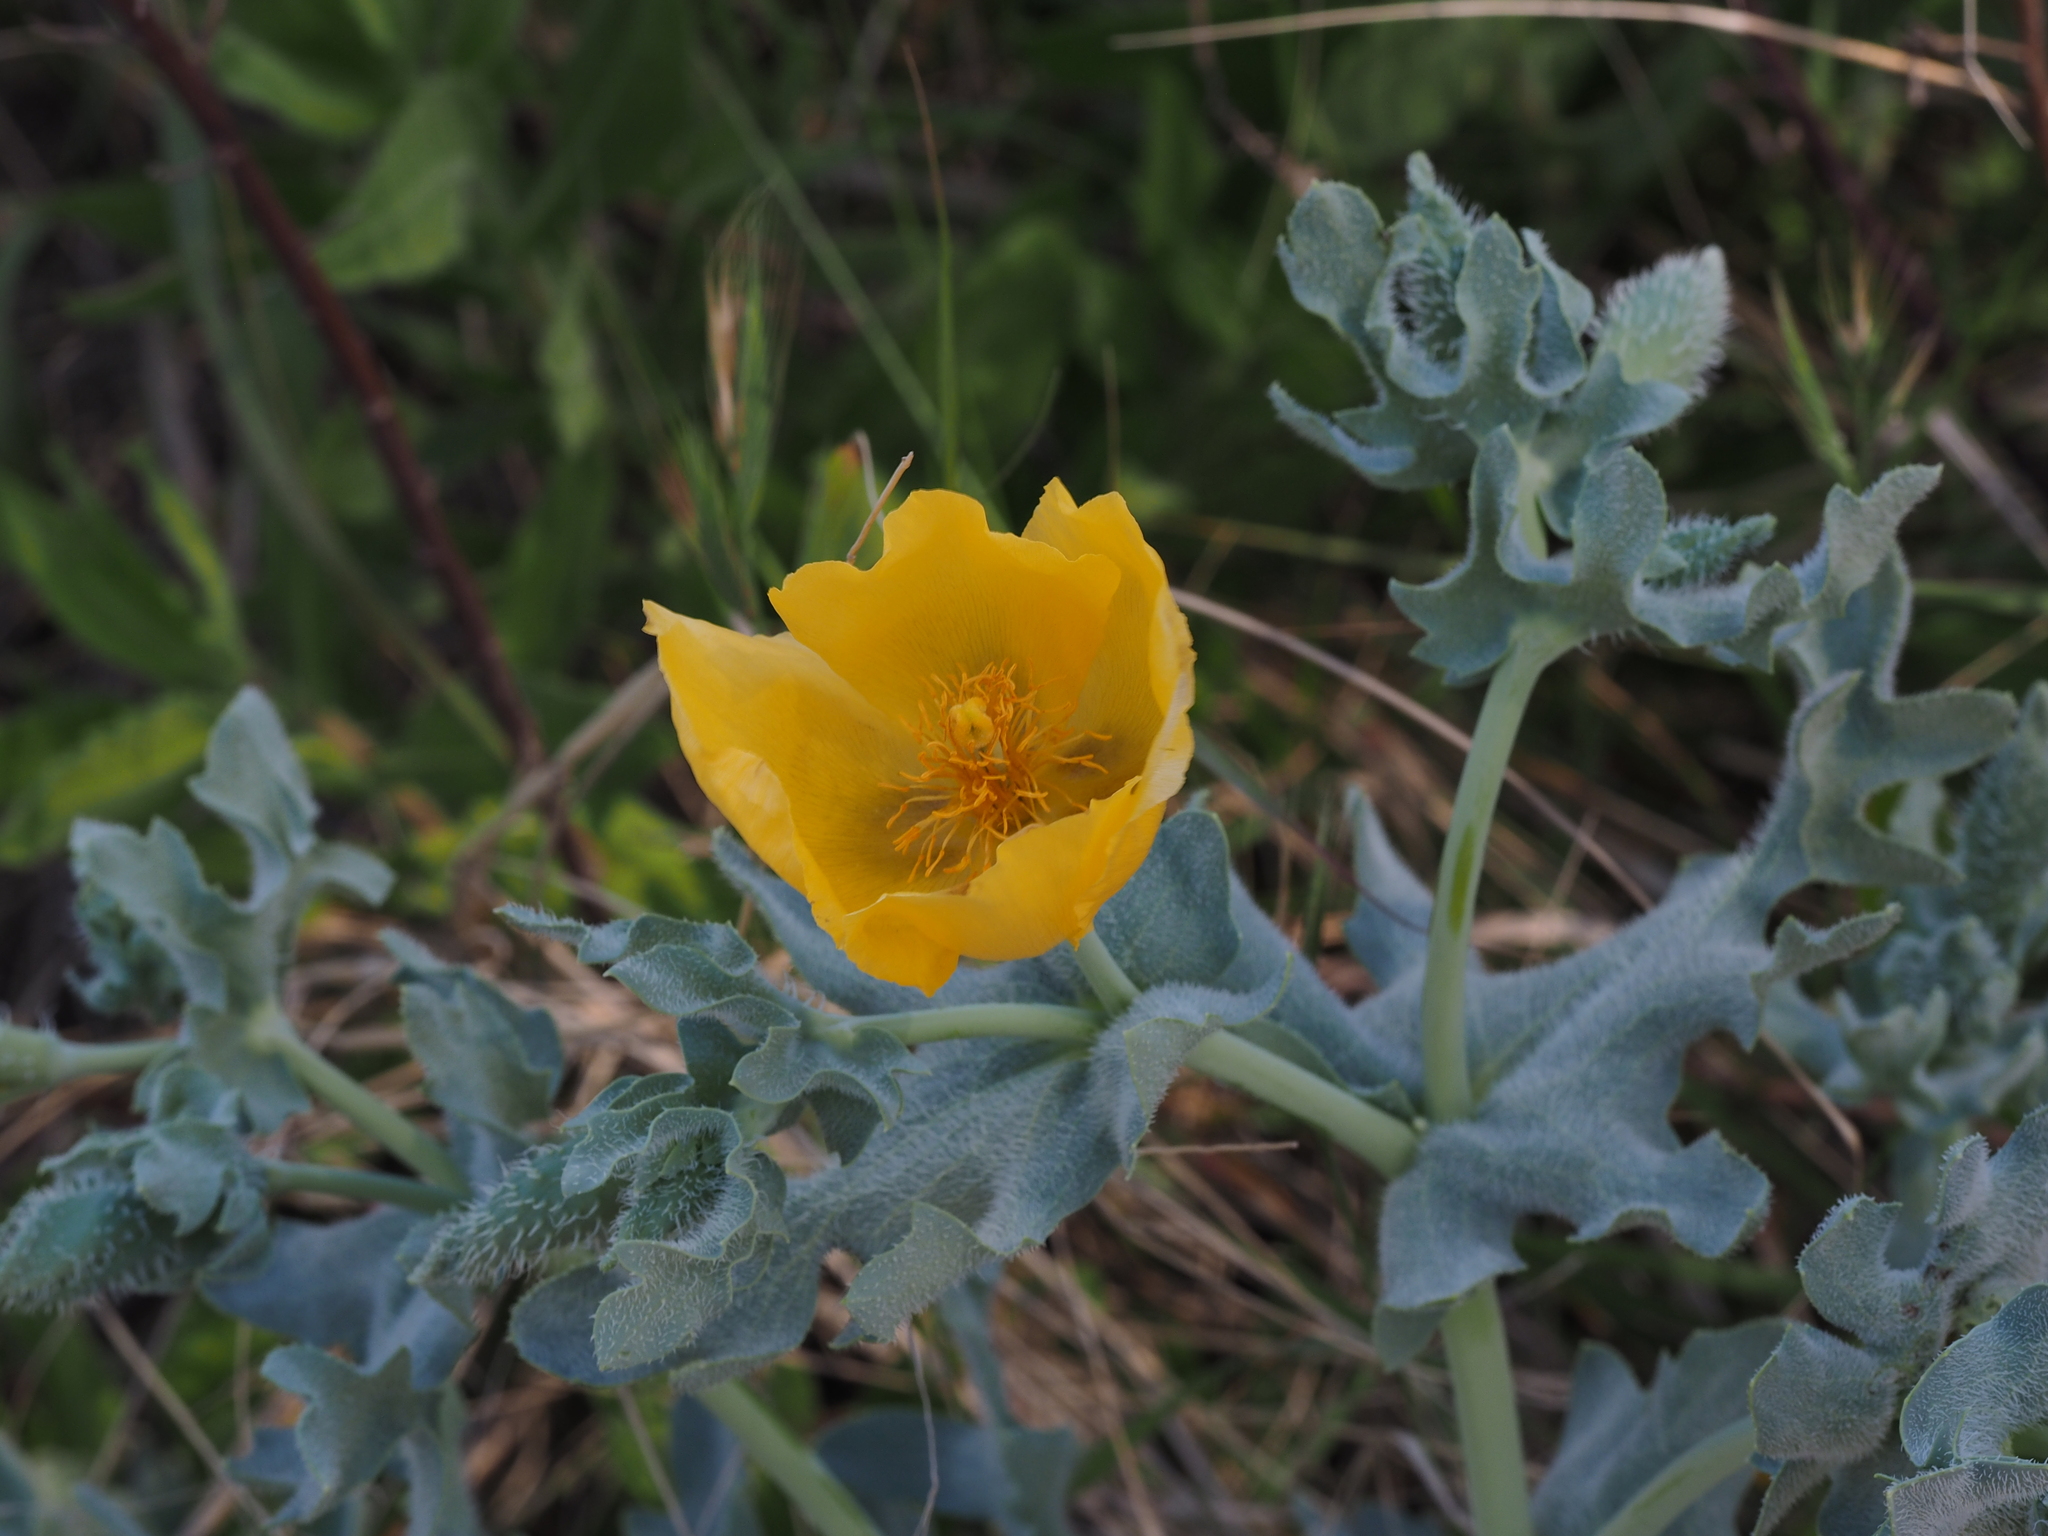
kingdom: Plantae
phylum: Tracheophyta
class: Magnoliopsida
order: Ranunculales
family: Papaveraceae
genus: Glaucium
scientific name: Glaucium flavum
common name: Yellow horned-poppy
